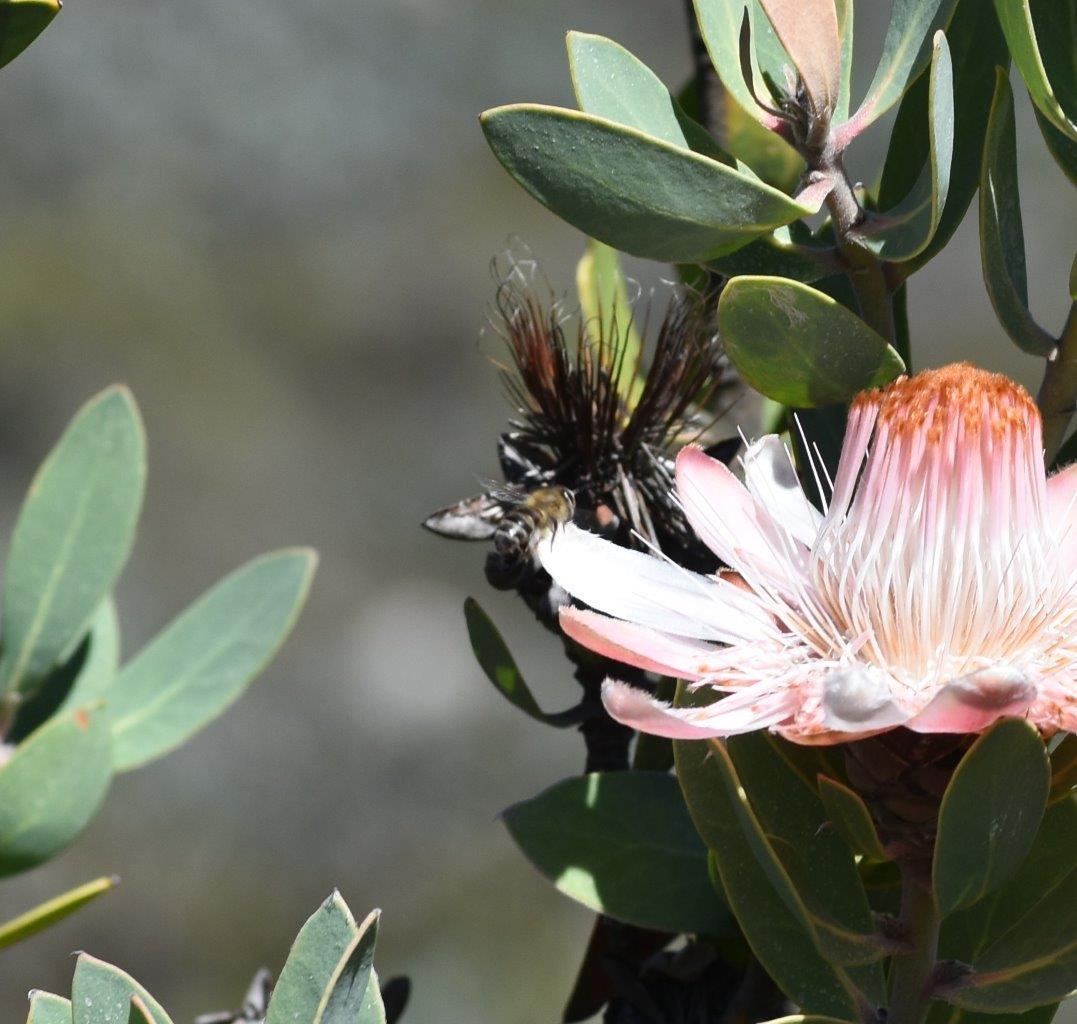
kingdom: Animalia
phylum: Arthropoda
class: Insecta
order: Hymenoptera
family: Apidae
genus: Apis
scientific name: Apis mellifera
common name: Honey bee
